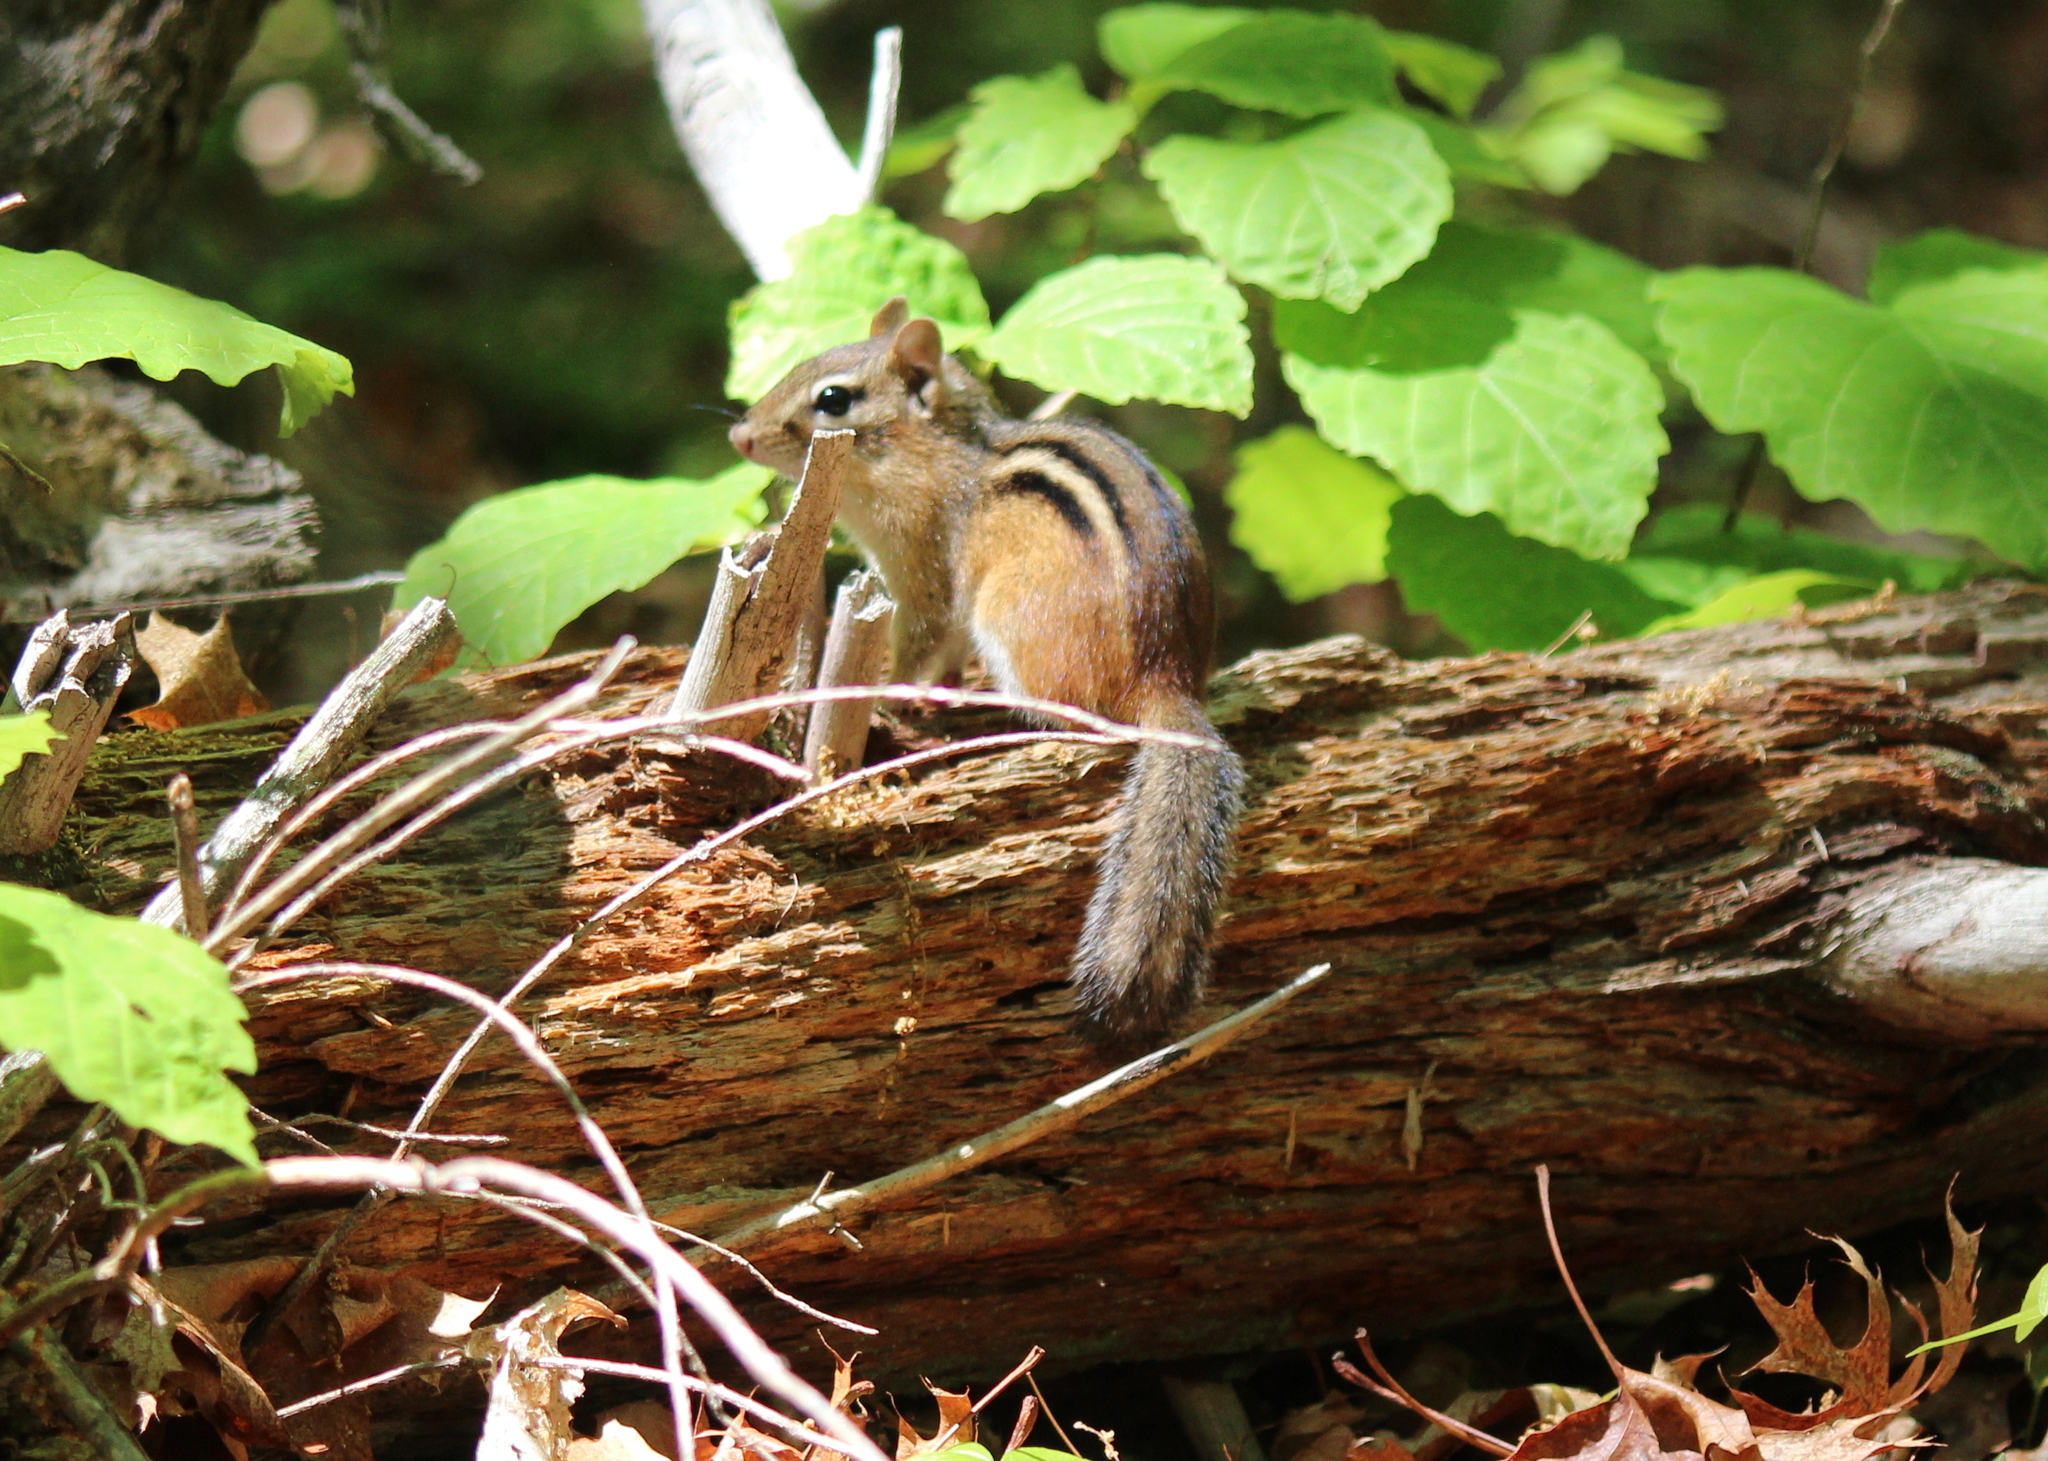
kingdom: Animalia
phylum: Chordata
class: Mammalia
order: Rodentia
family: Sciuridae
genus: Tamias
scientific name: Tamias striatus
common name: Eastern chipmunk
